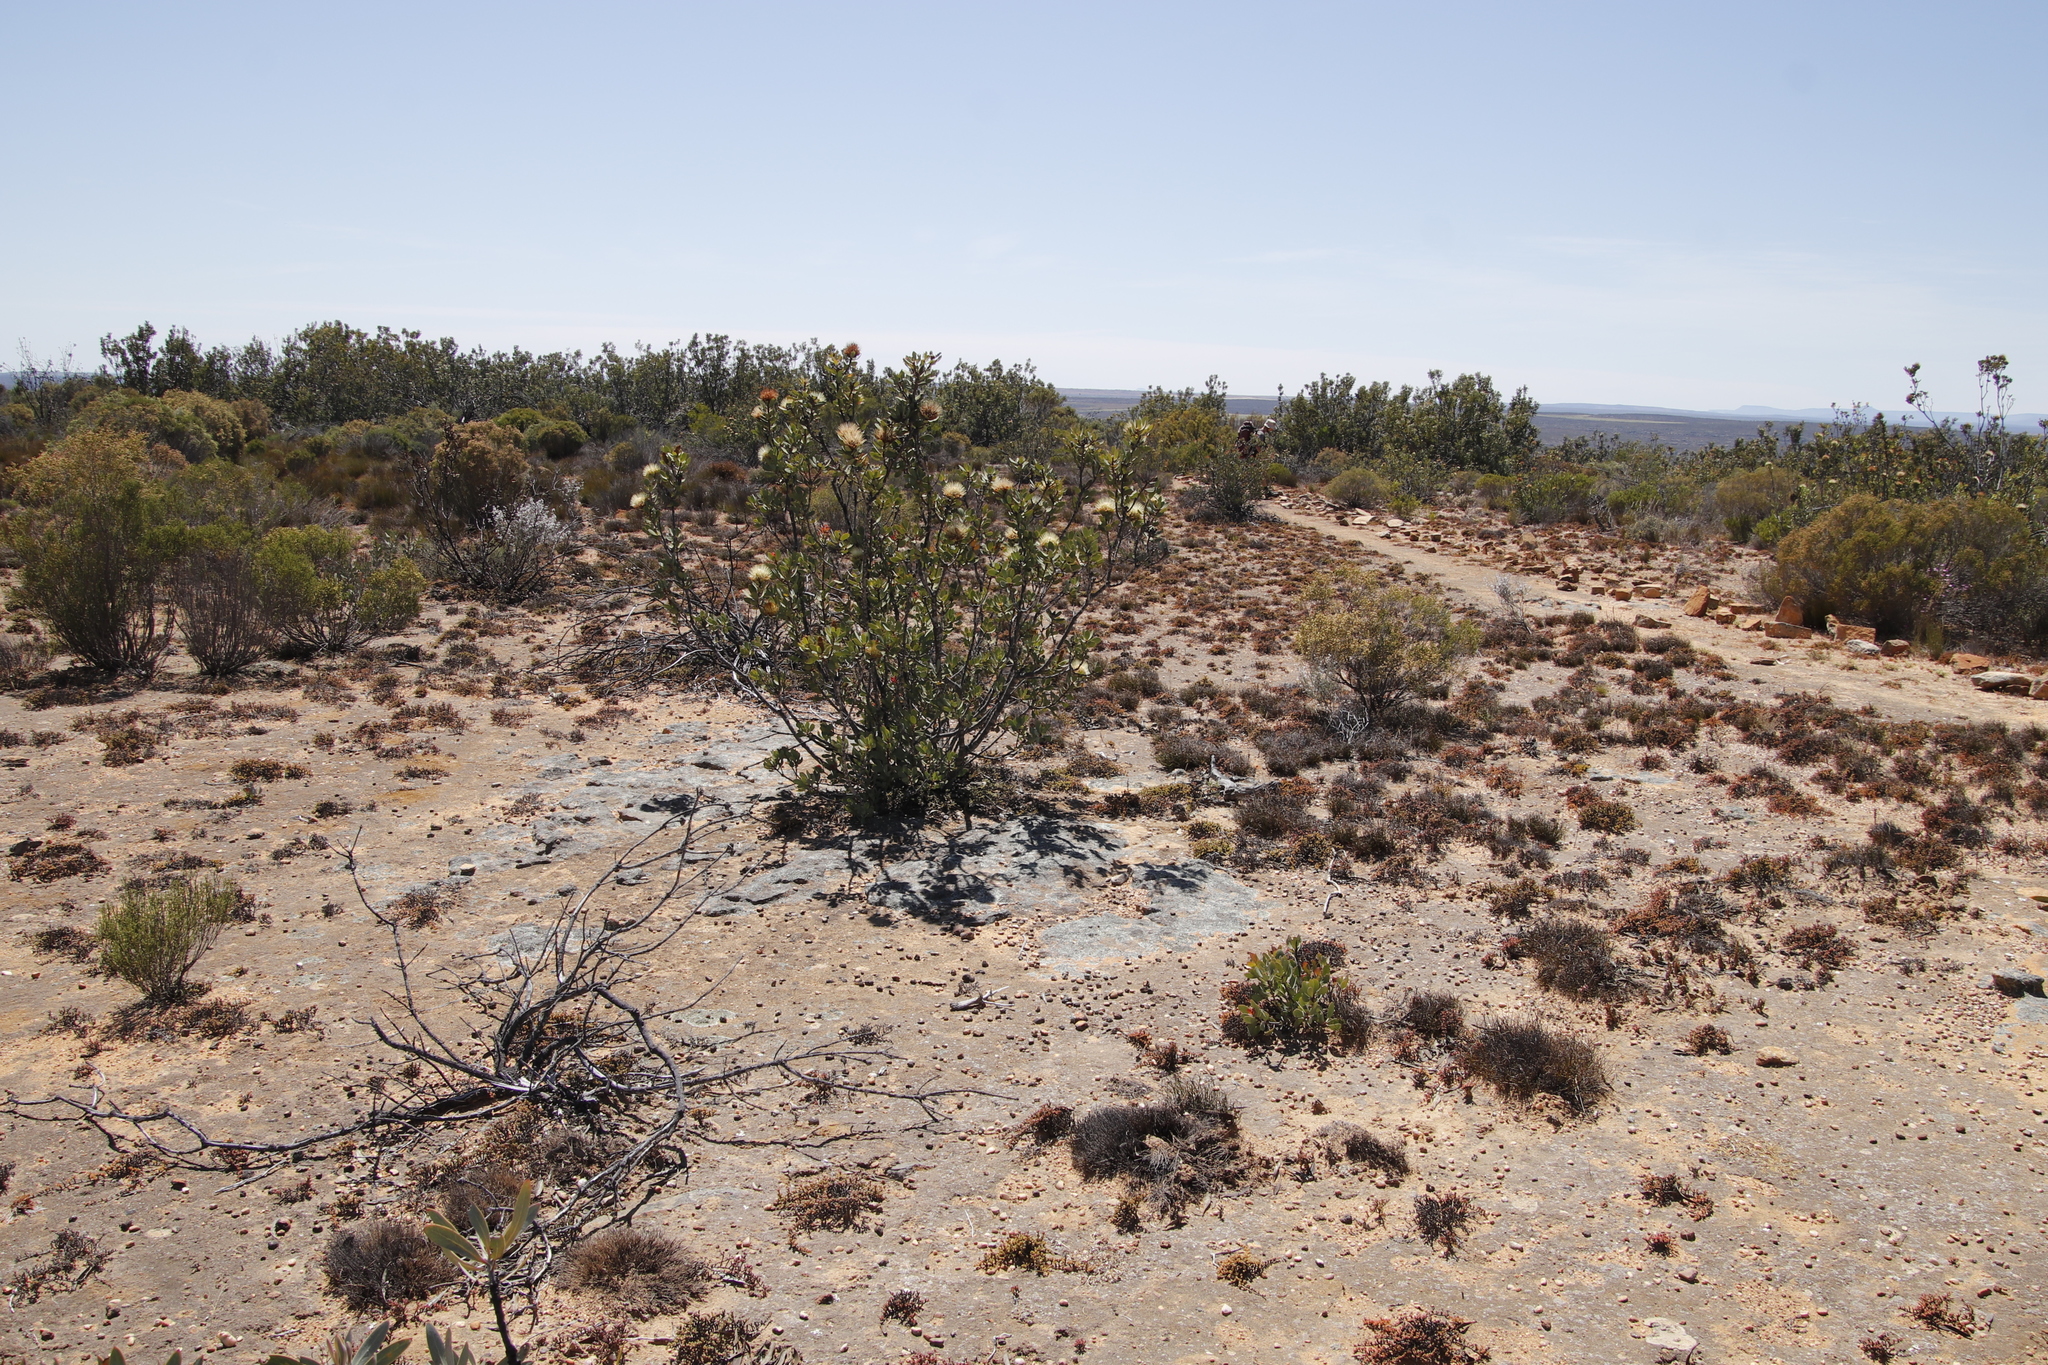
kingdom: Plantae
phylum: Tracheophyta
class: Magnoliopsida
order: Proteales
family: Proteaceae
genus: Protea
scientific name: Protea glabra
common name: Chestnut sugarbush
